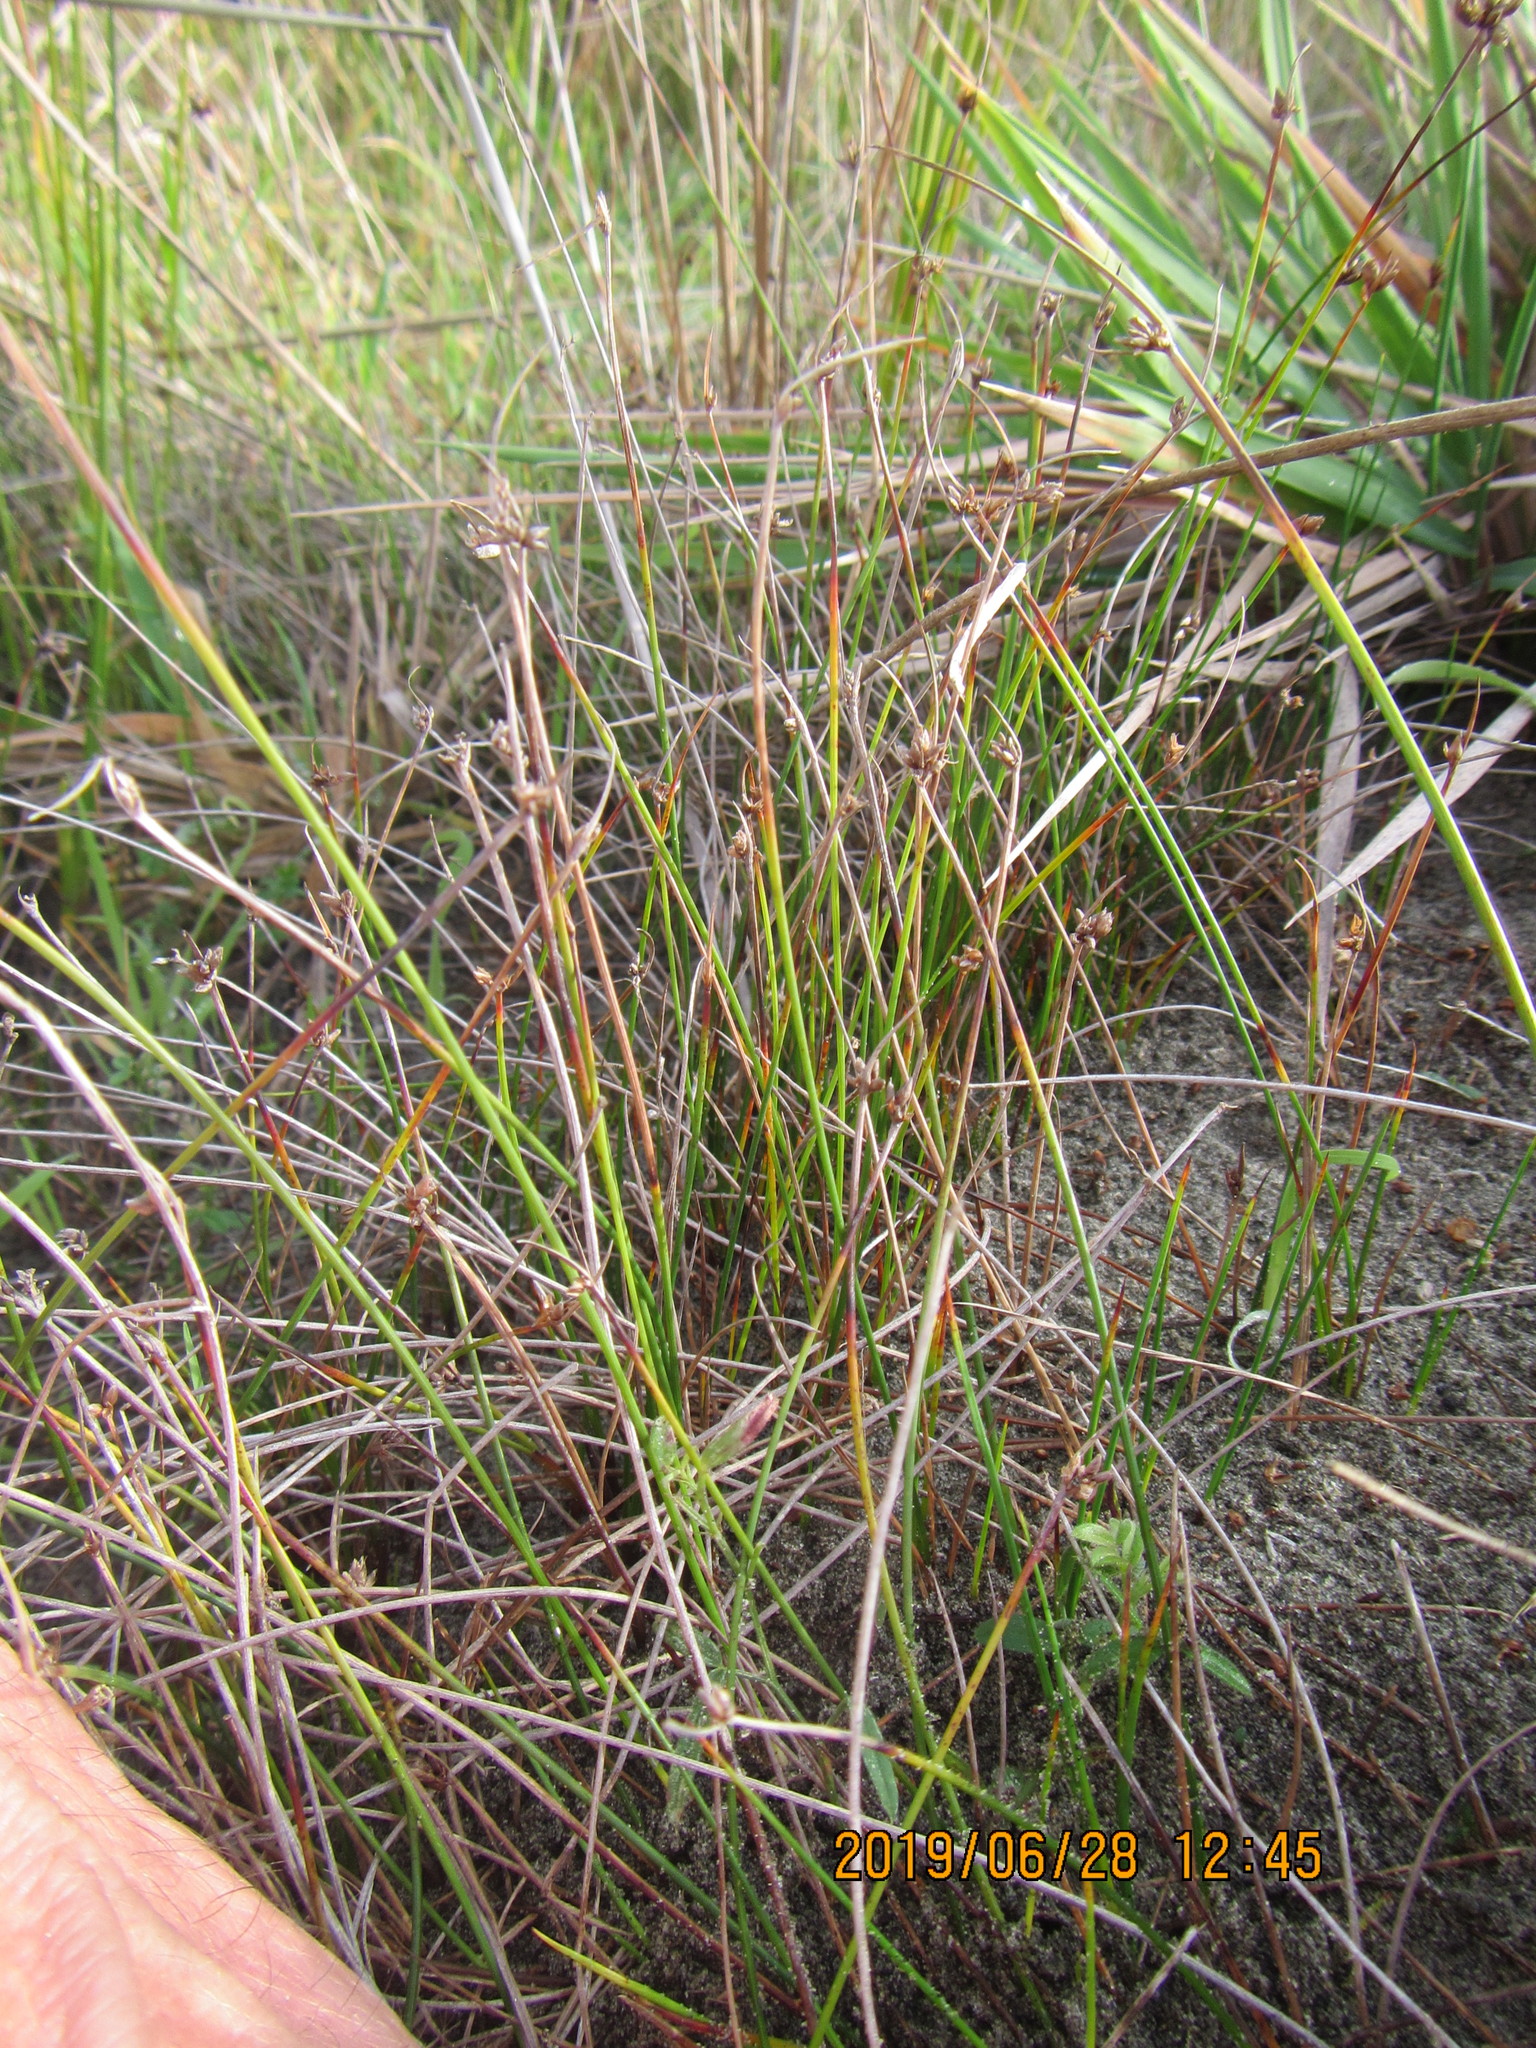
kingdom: Plantae
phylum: Tracheophyta
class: Liliopsida
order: Poales
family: Cyperaceae
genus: Schoenus
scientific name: Schoenus nitens
